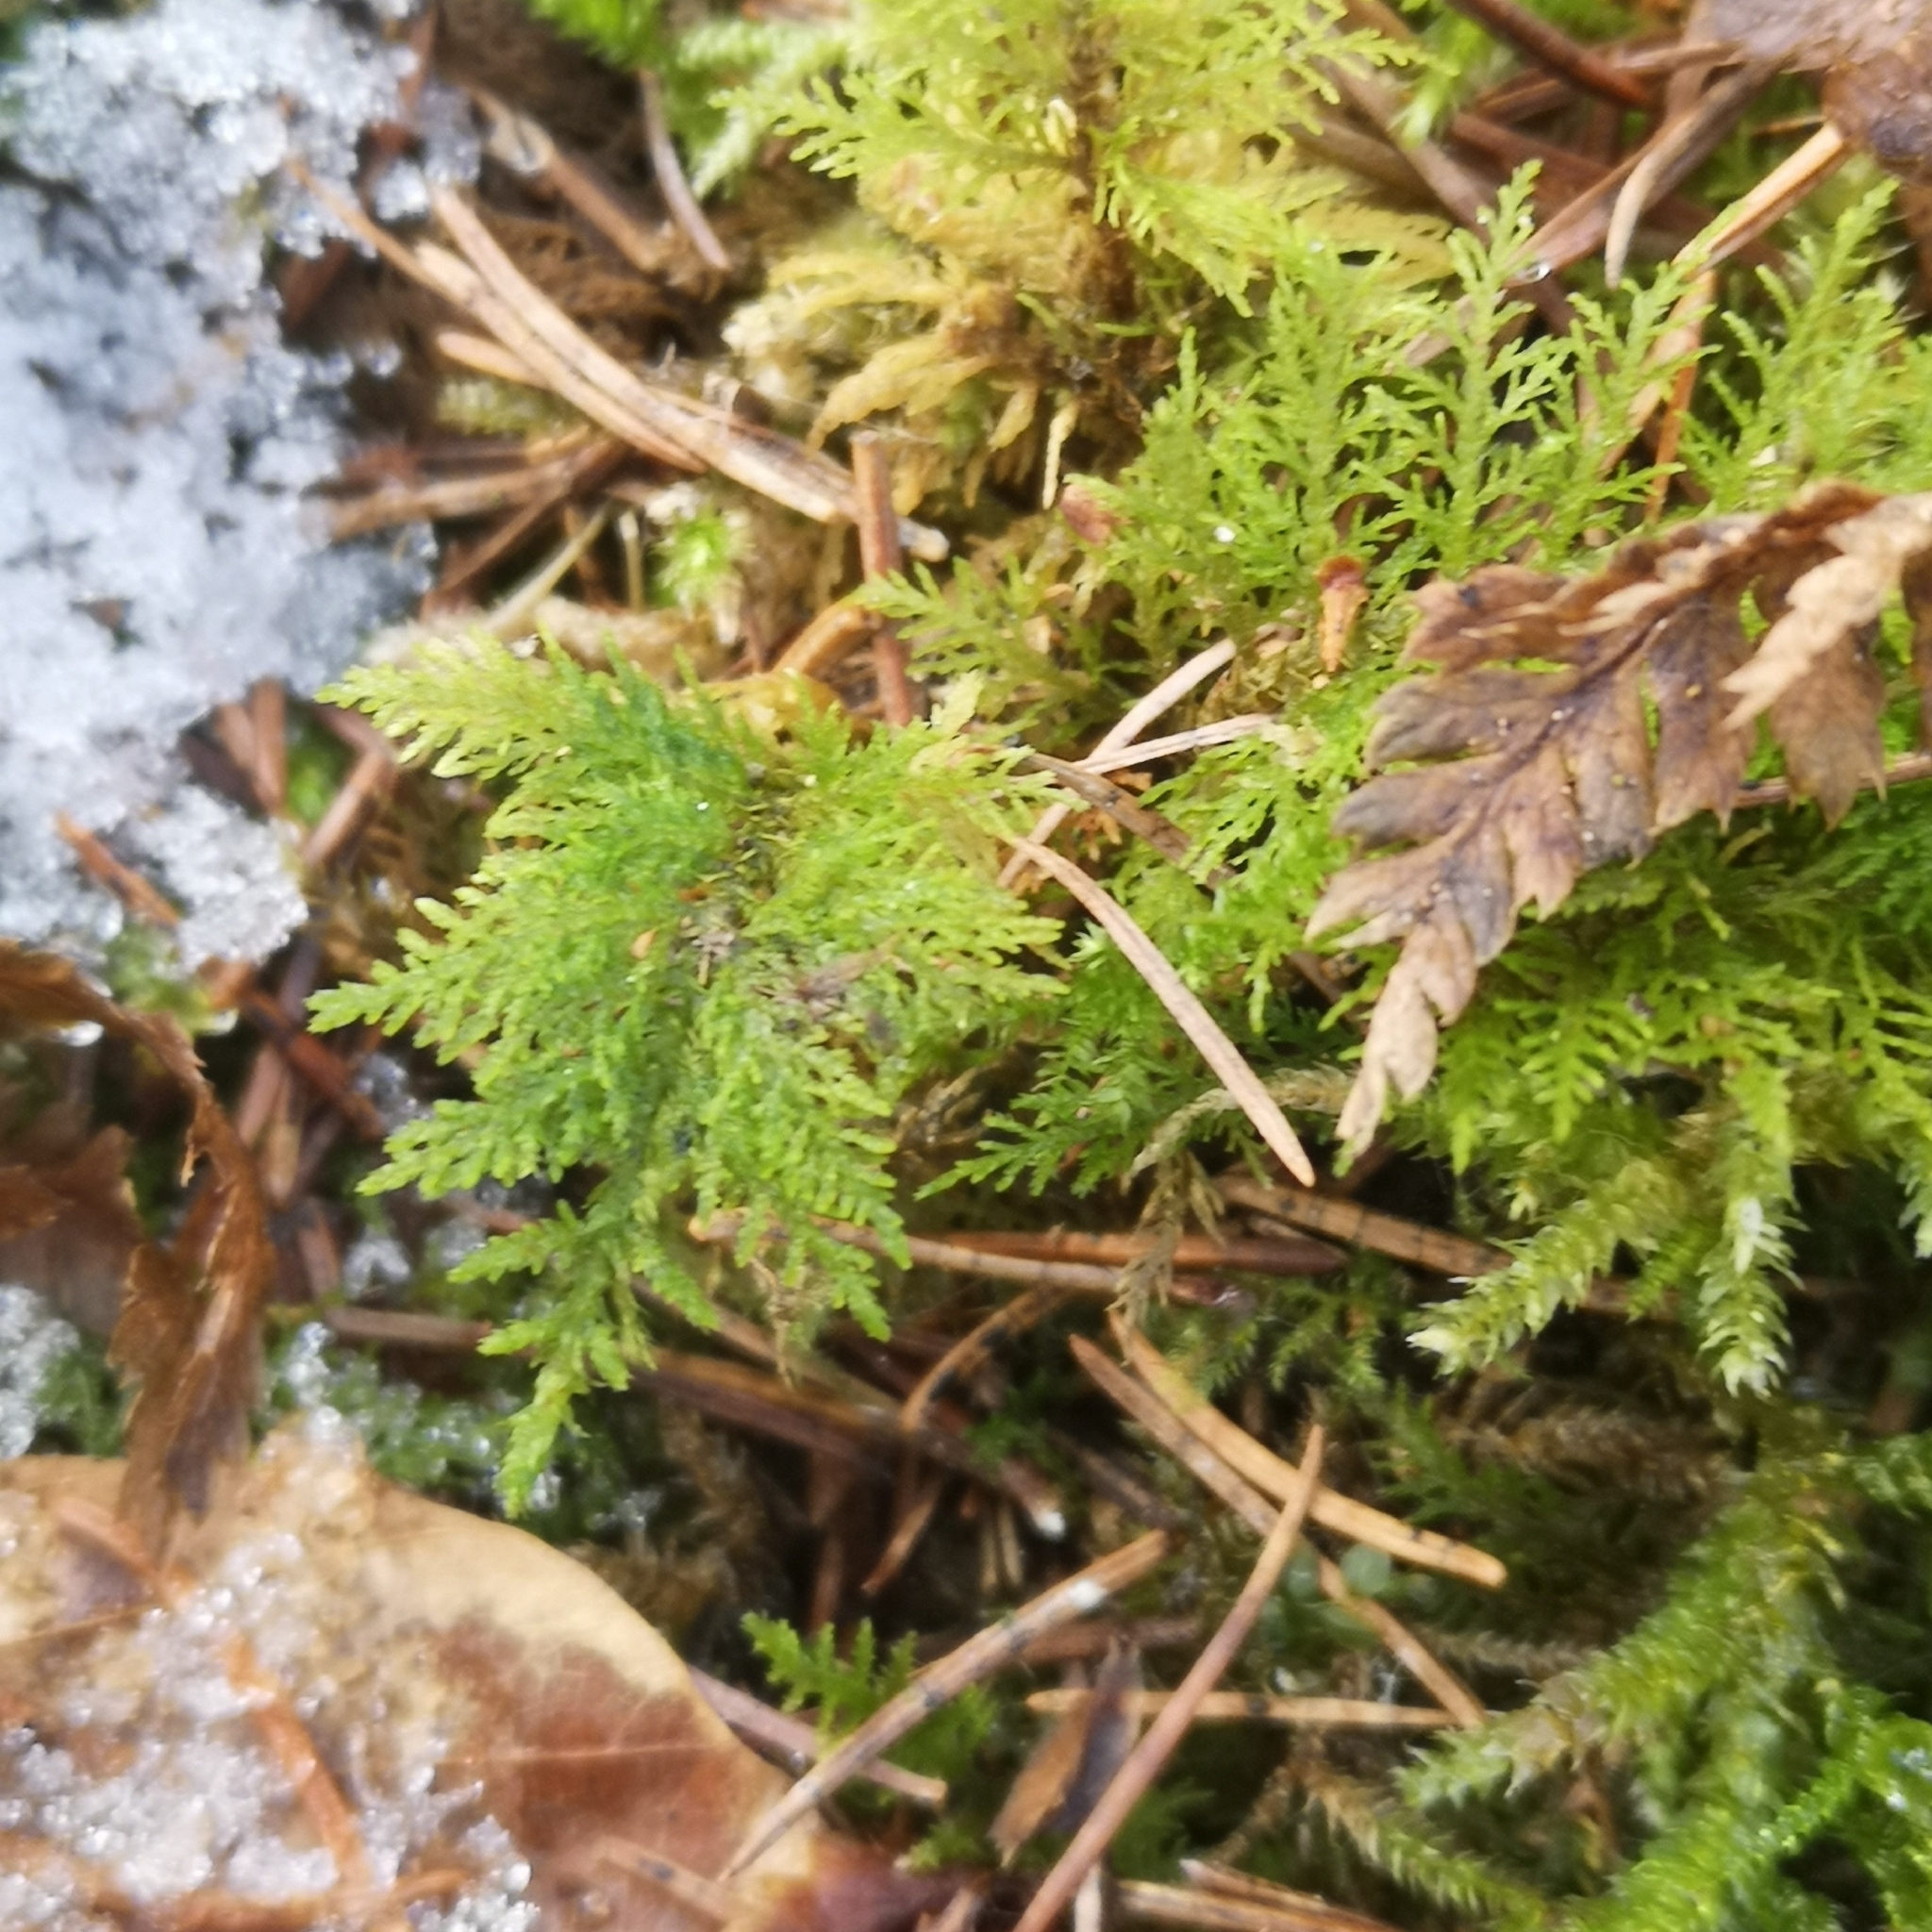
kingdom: Plantae
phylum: Bryophyta
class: Bryopsida
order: Hypnales
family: Thuidiaceae
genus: Thuidium
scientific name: Thuidium tamariscinum
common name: Common tamarisk-moss
